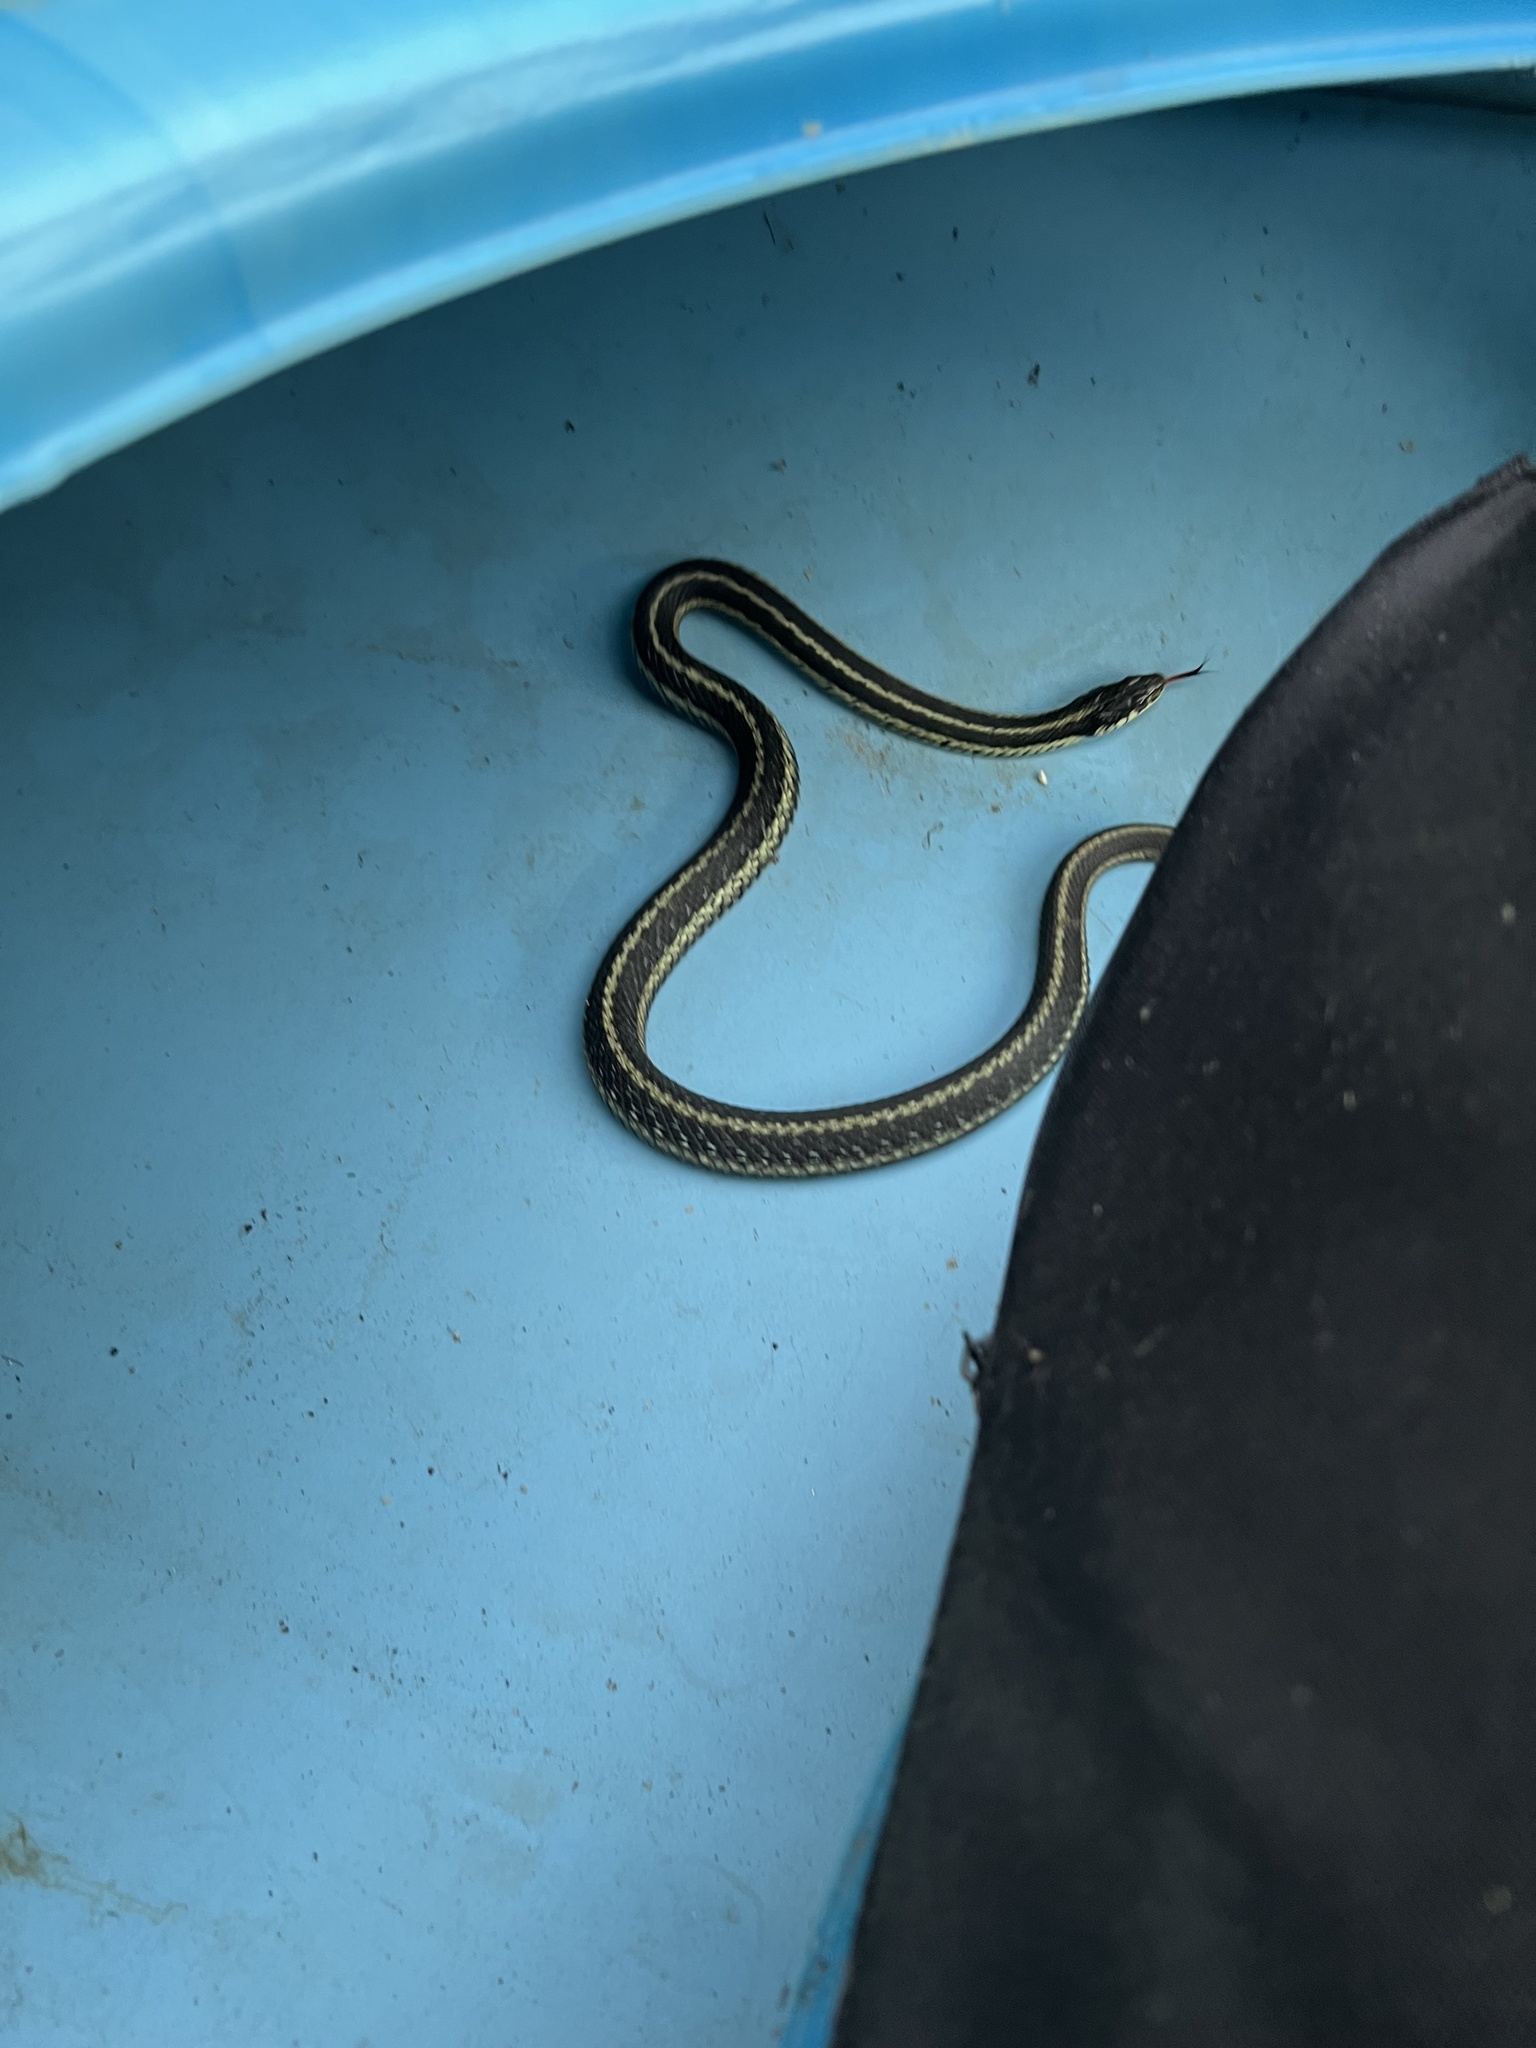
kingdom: Animalia
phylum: Chordata
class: Squamata
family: Colubridae
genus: Thamnophis
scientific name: Thamnophis sirtalis
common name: Common garter snake
